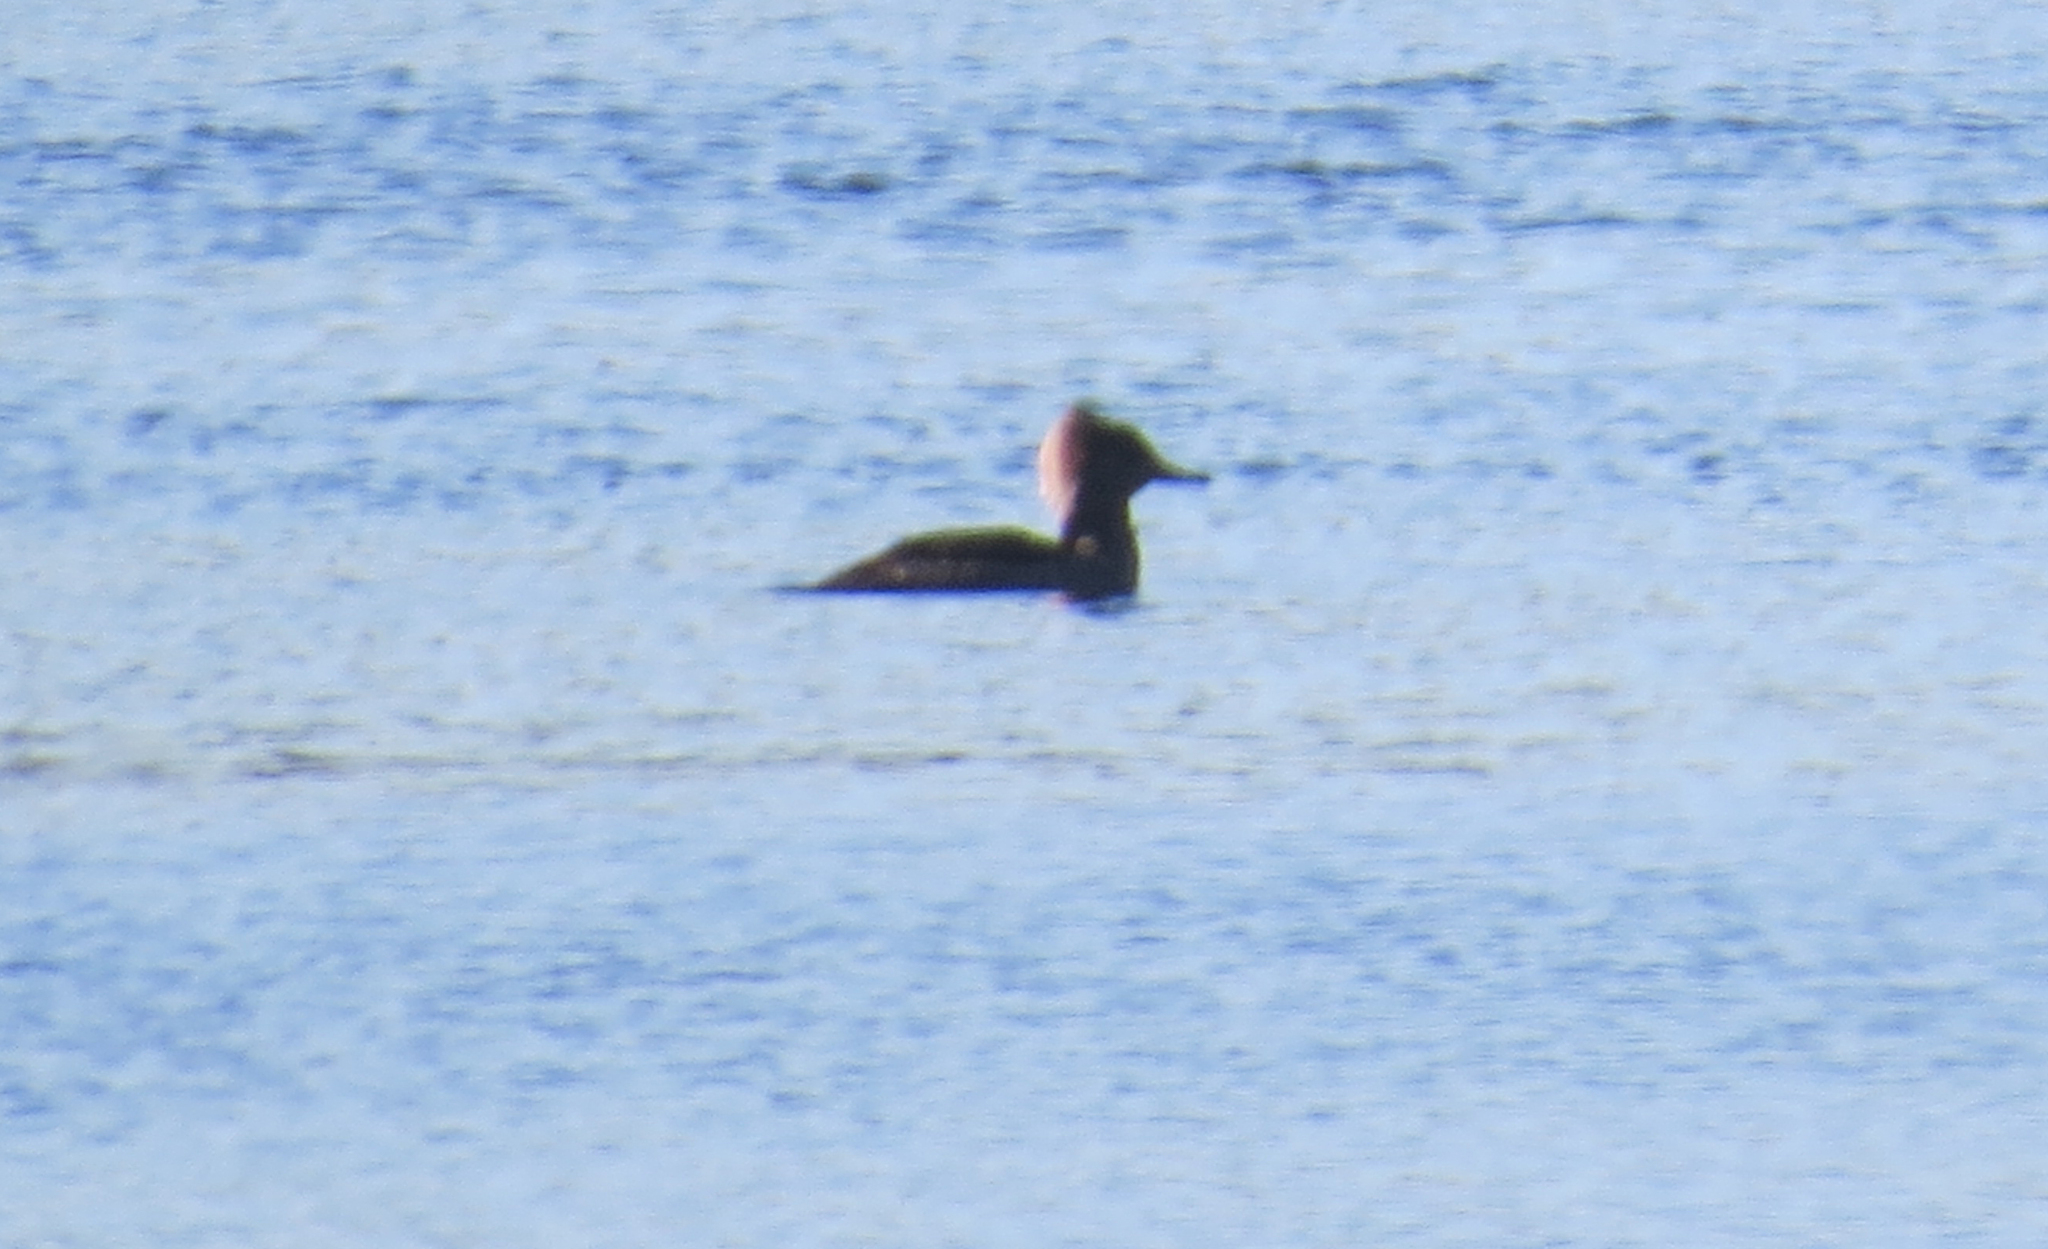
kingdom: Animalia
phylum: Chordata
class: Aves
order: Anseriformes
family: Anatidae
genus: Lophodytes
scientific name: Lophodytes cucullatus
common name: Hooded merganser
